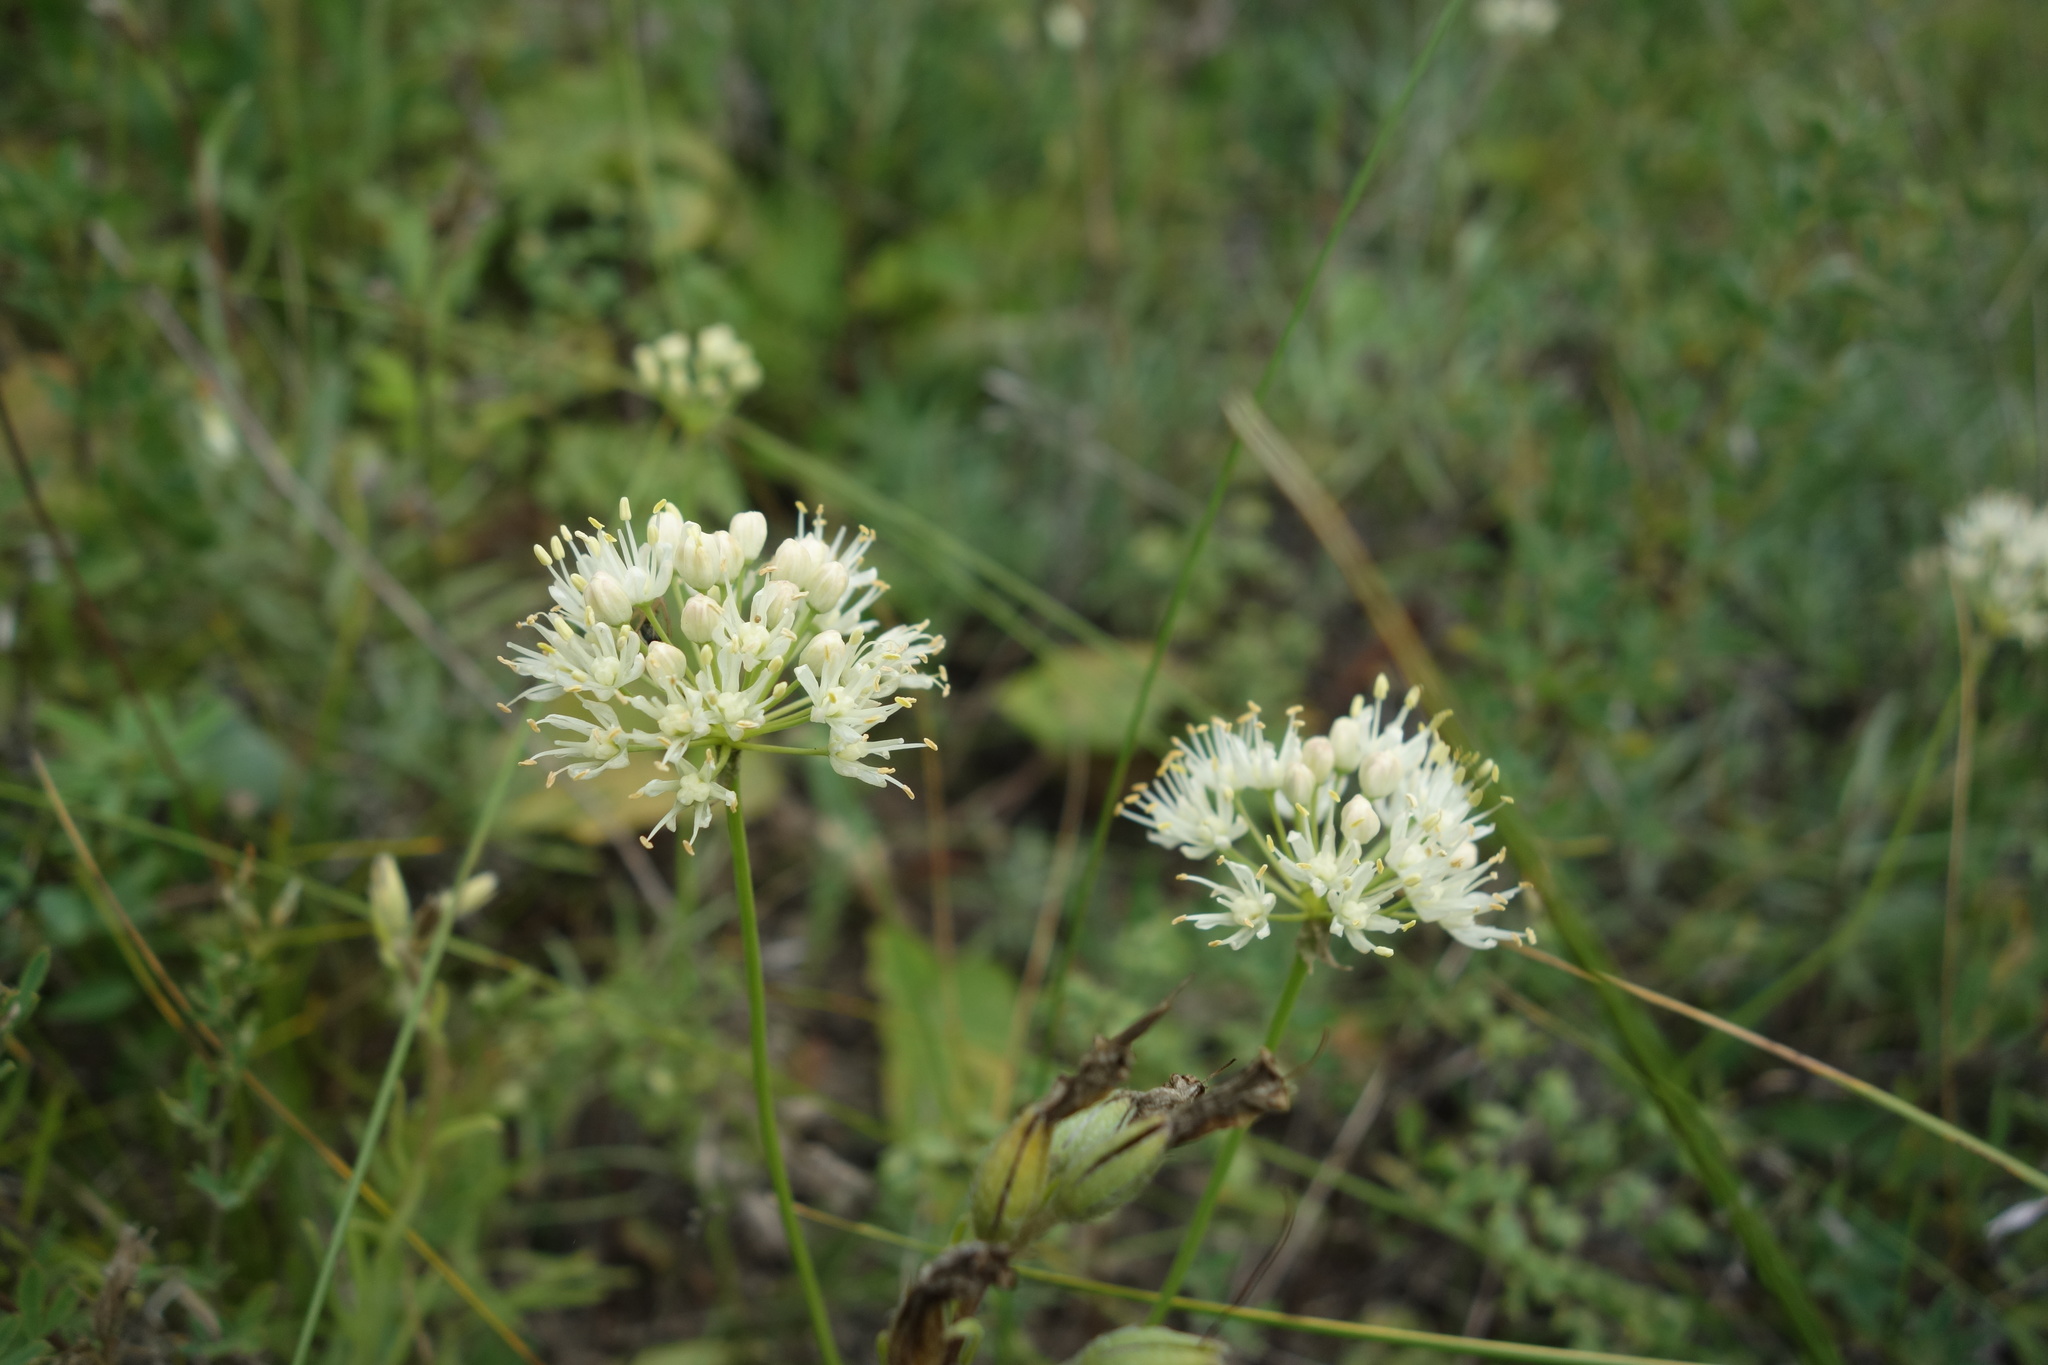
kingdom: Plantae
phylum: Tracheophyta
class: Liliopsida
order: Asparagales
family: Amaryllidaceae
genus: Allium
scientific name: Allium flavescens
